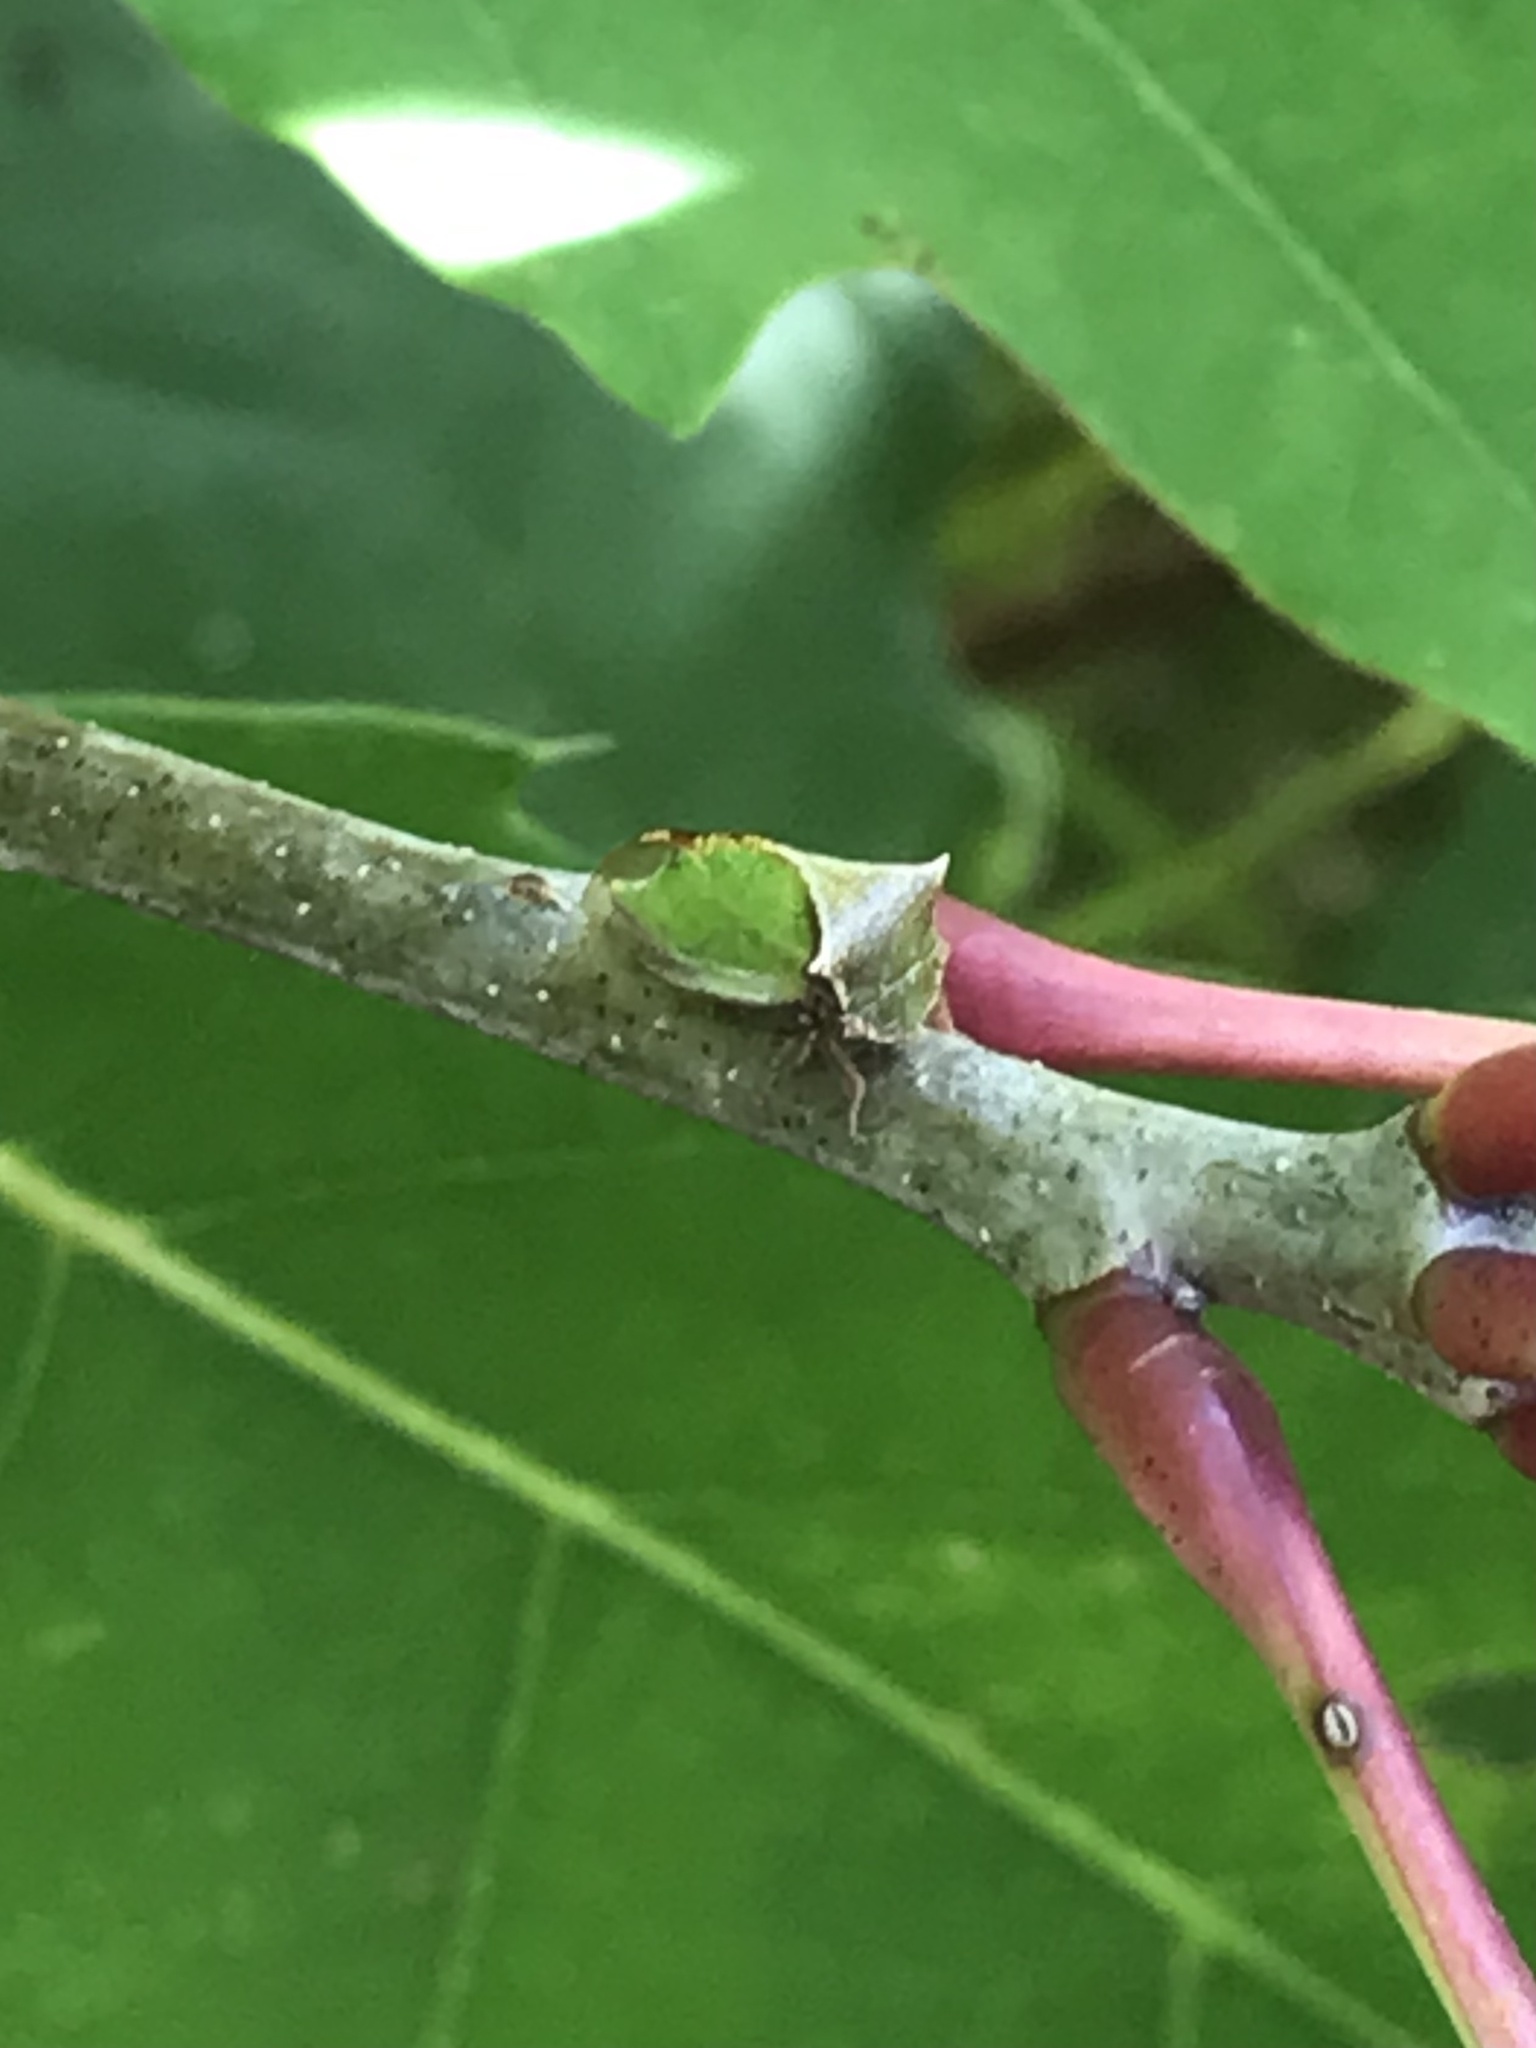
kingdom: Animalia
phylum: Arthropoda
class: Insecta
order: Hemiptera
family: Membracidae
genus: Stictocephala
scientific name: Stictocephala basalis
